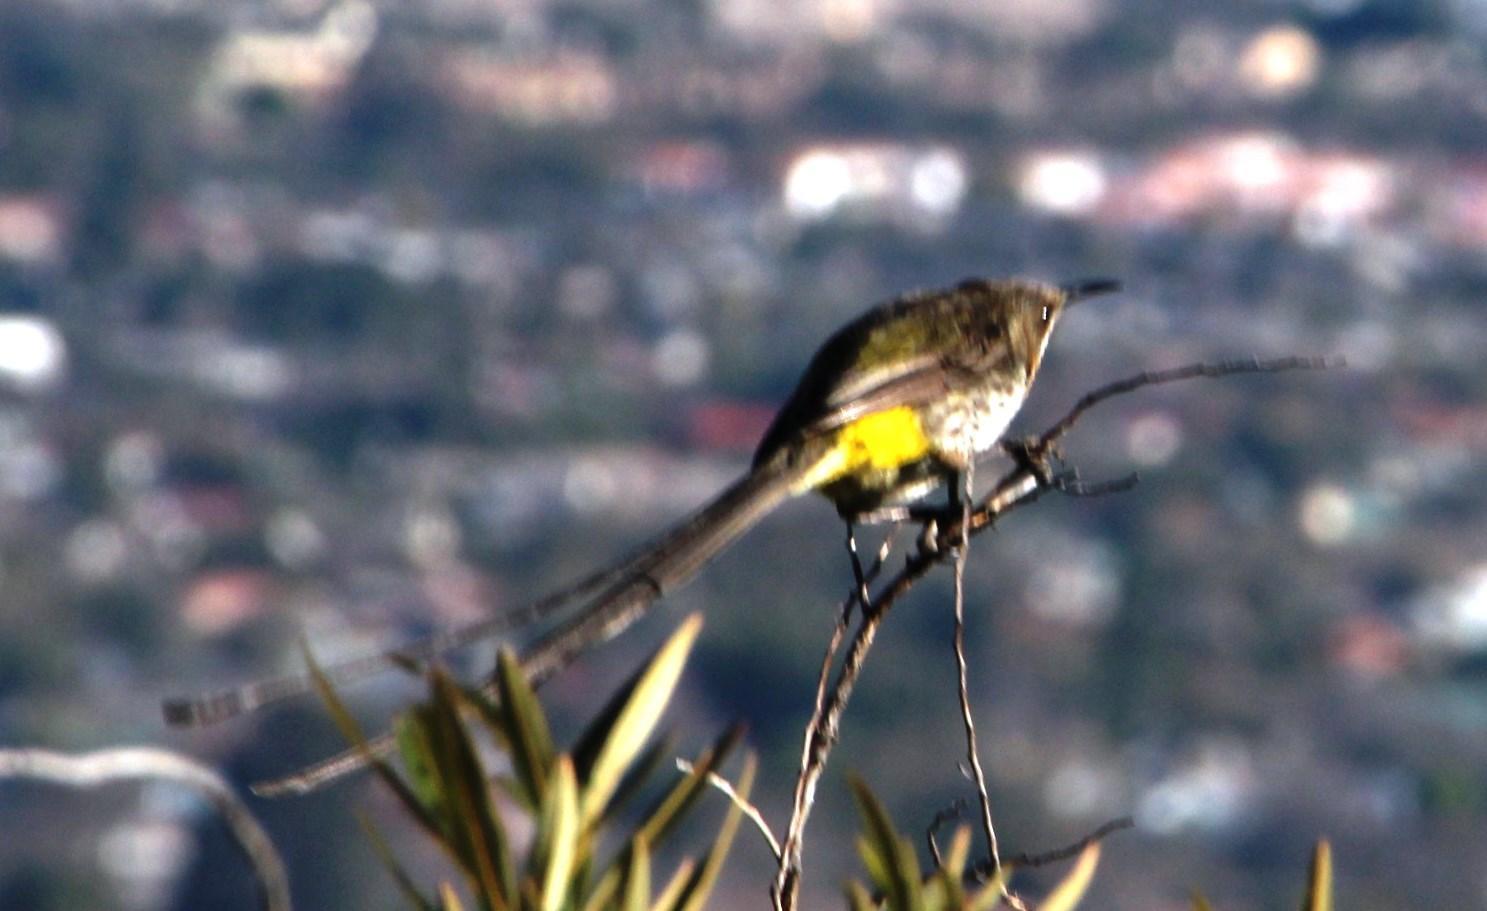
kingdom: Animalia
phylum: Chordata
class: Aves
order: Passeriformes
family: Promeropidae
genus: Promerops
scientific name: Promerops cafer
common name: Cape sugarbird
